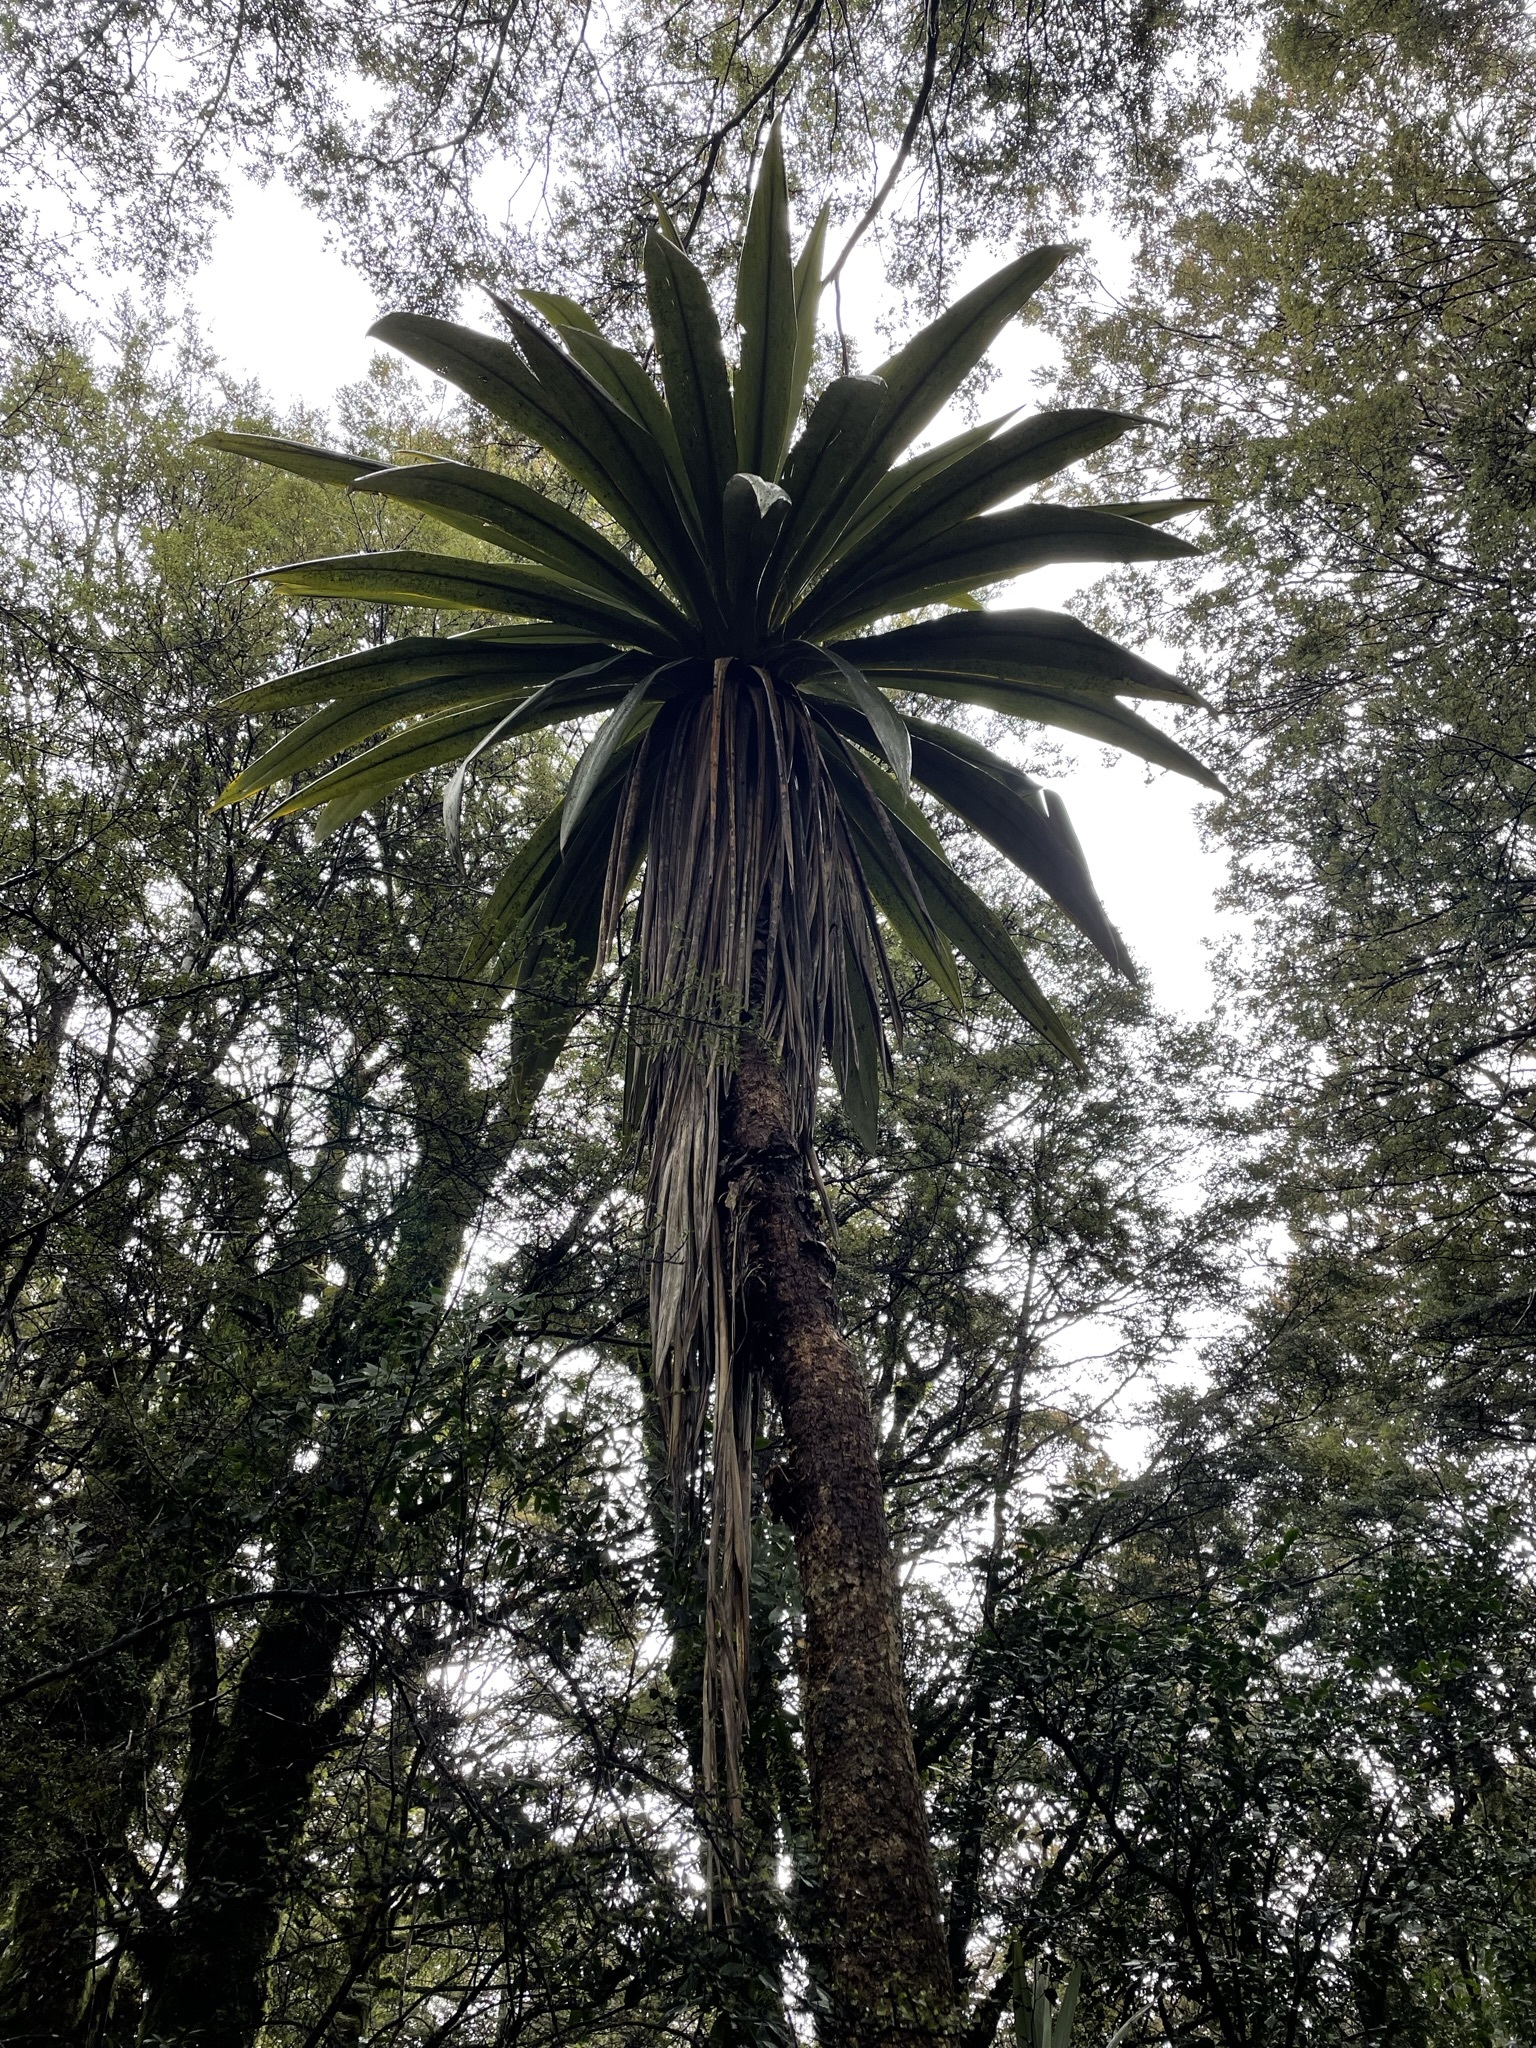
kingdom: Plantae
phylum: Tracheophyta
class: Liliopsida
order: Asparagales
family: Asparagaceae
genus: Cordyline
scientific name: Cordyline indivisa
